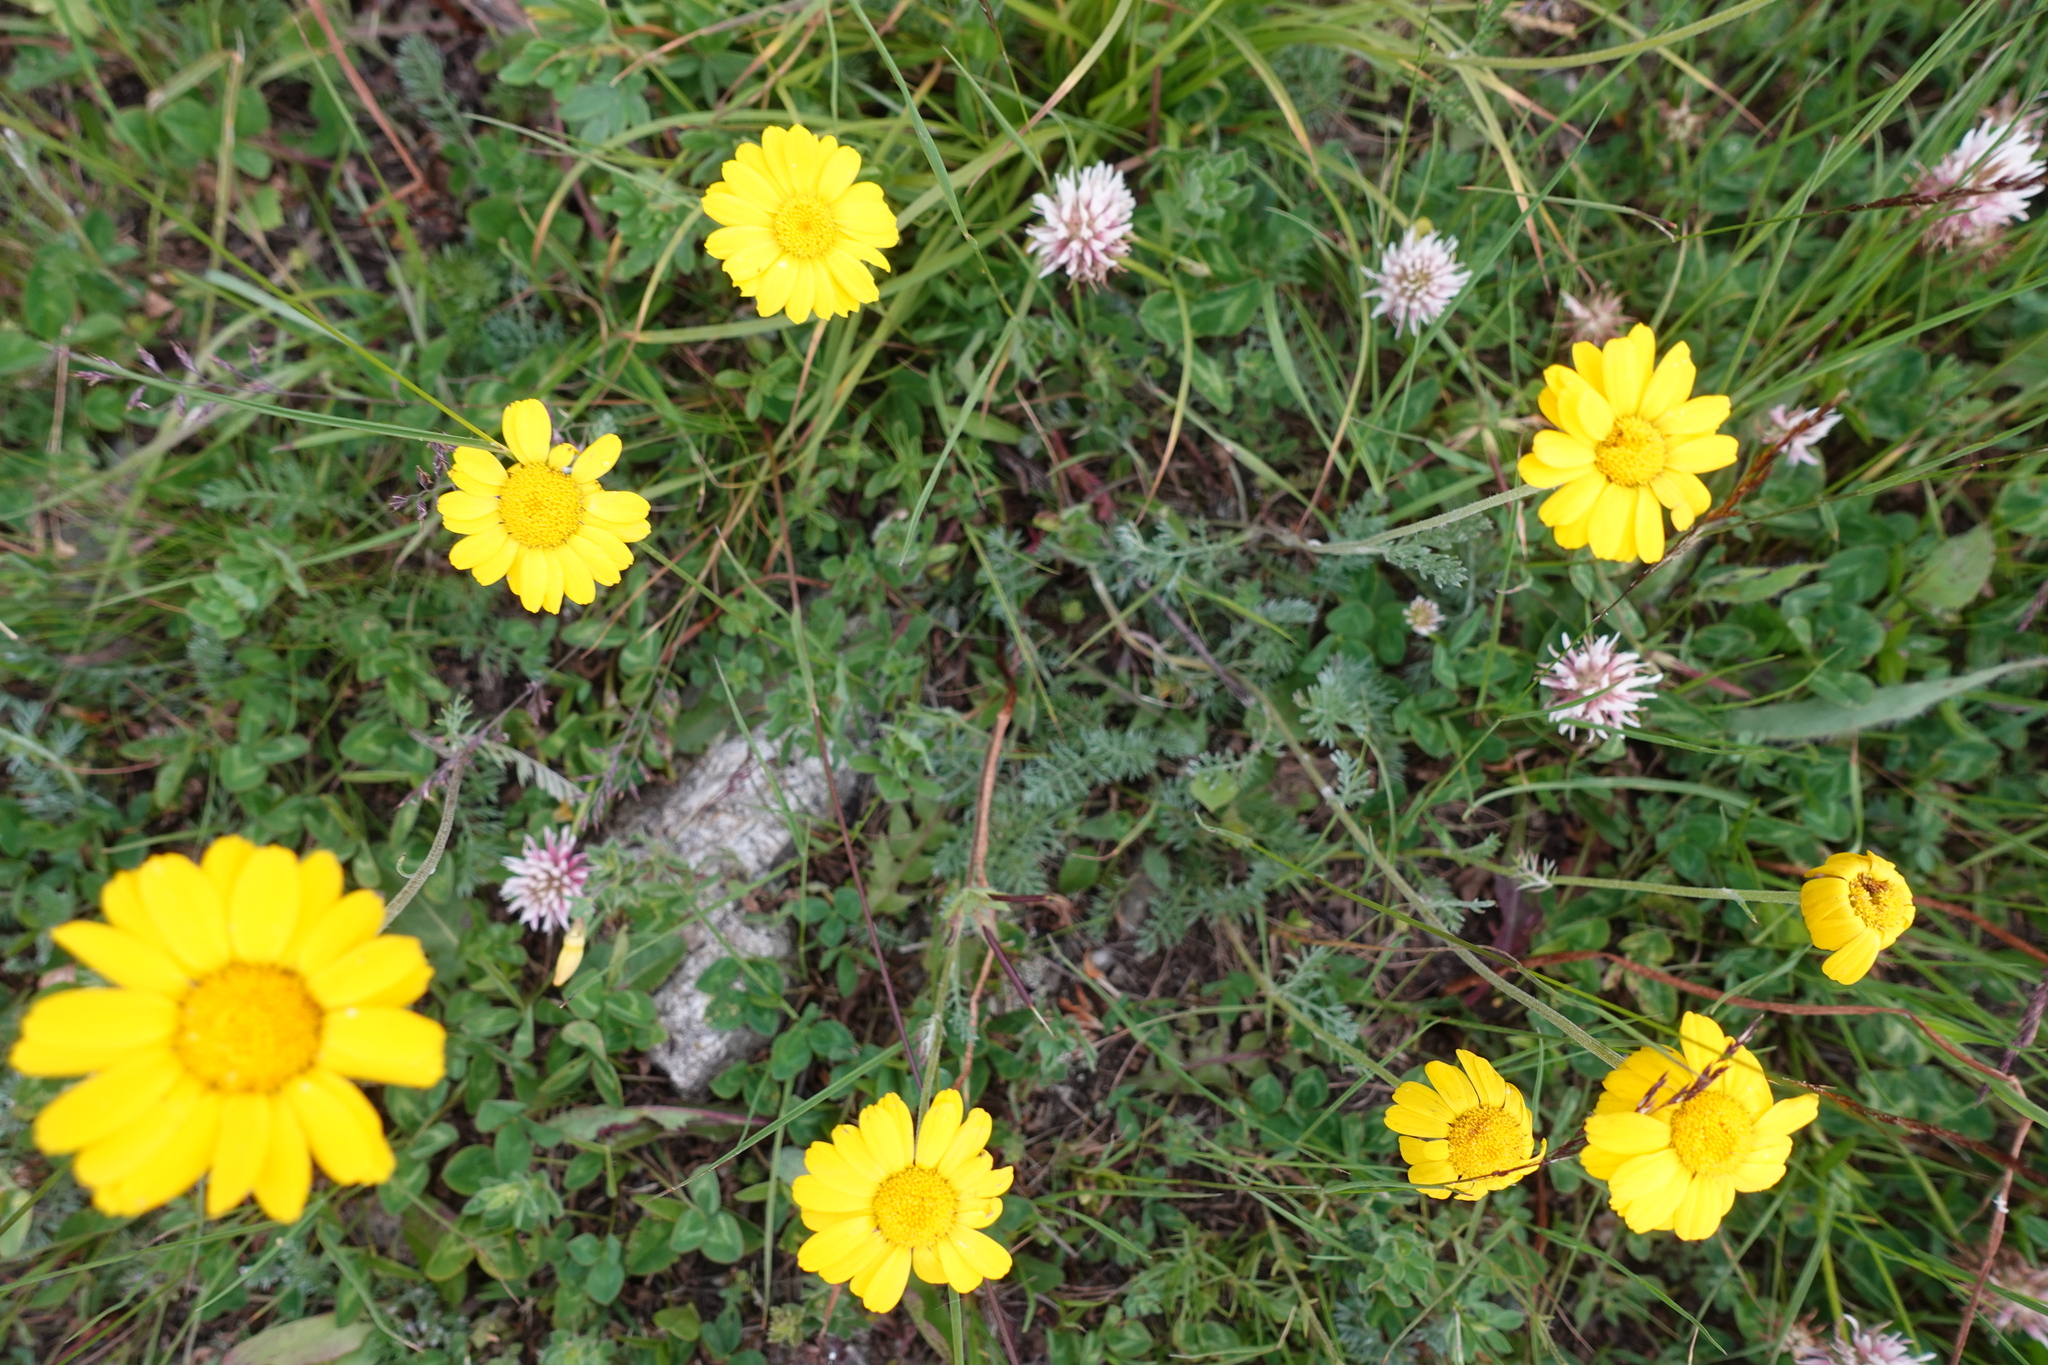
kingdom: Plantae
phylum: Tracheophyta
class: Magnoliopsida
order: Asterales
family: Asteraceae
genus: Archanthemis
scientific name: Archanthemis marschalliana
